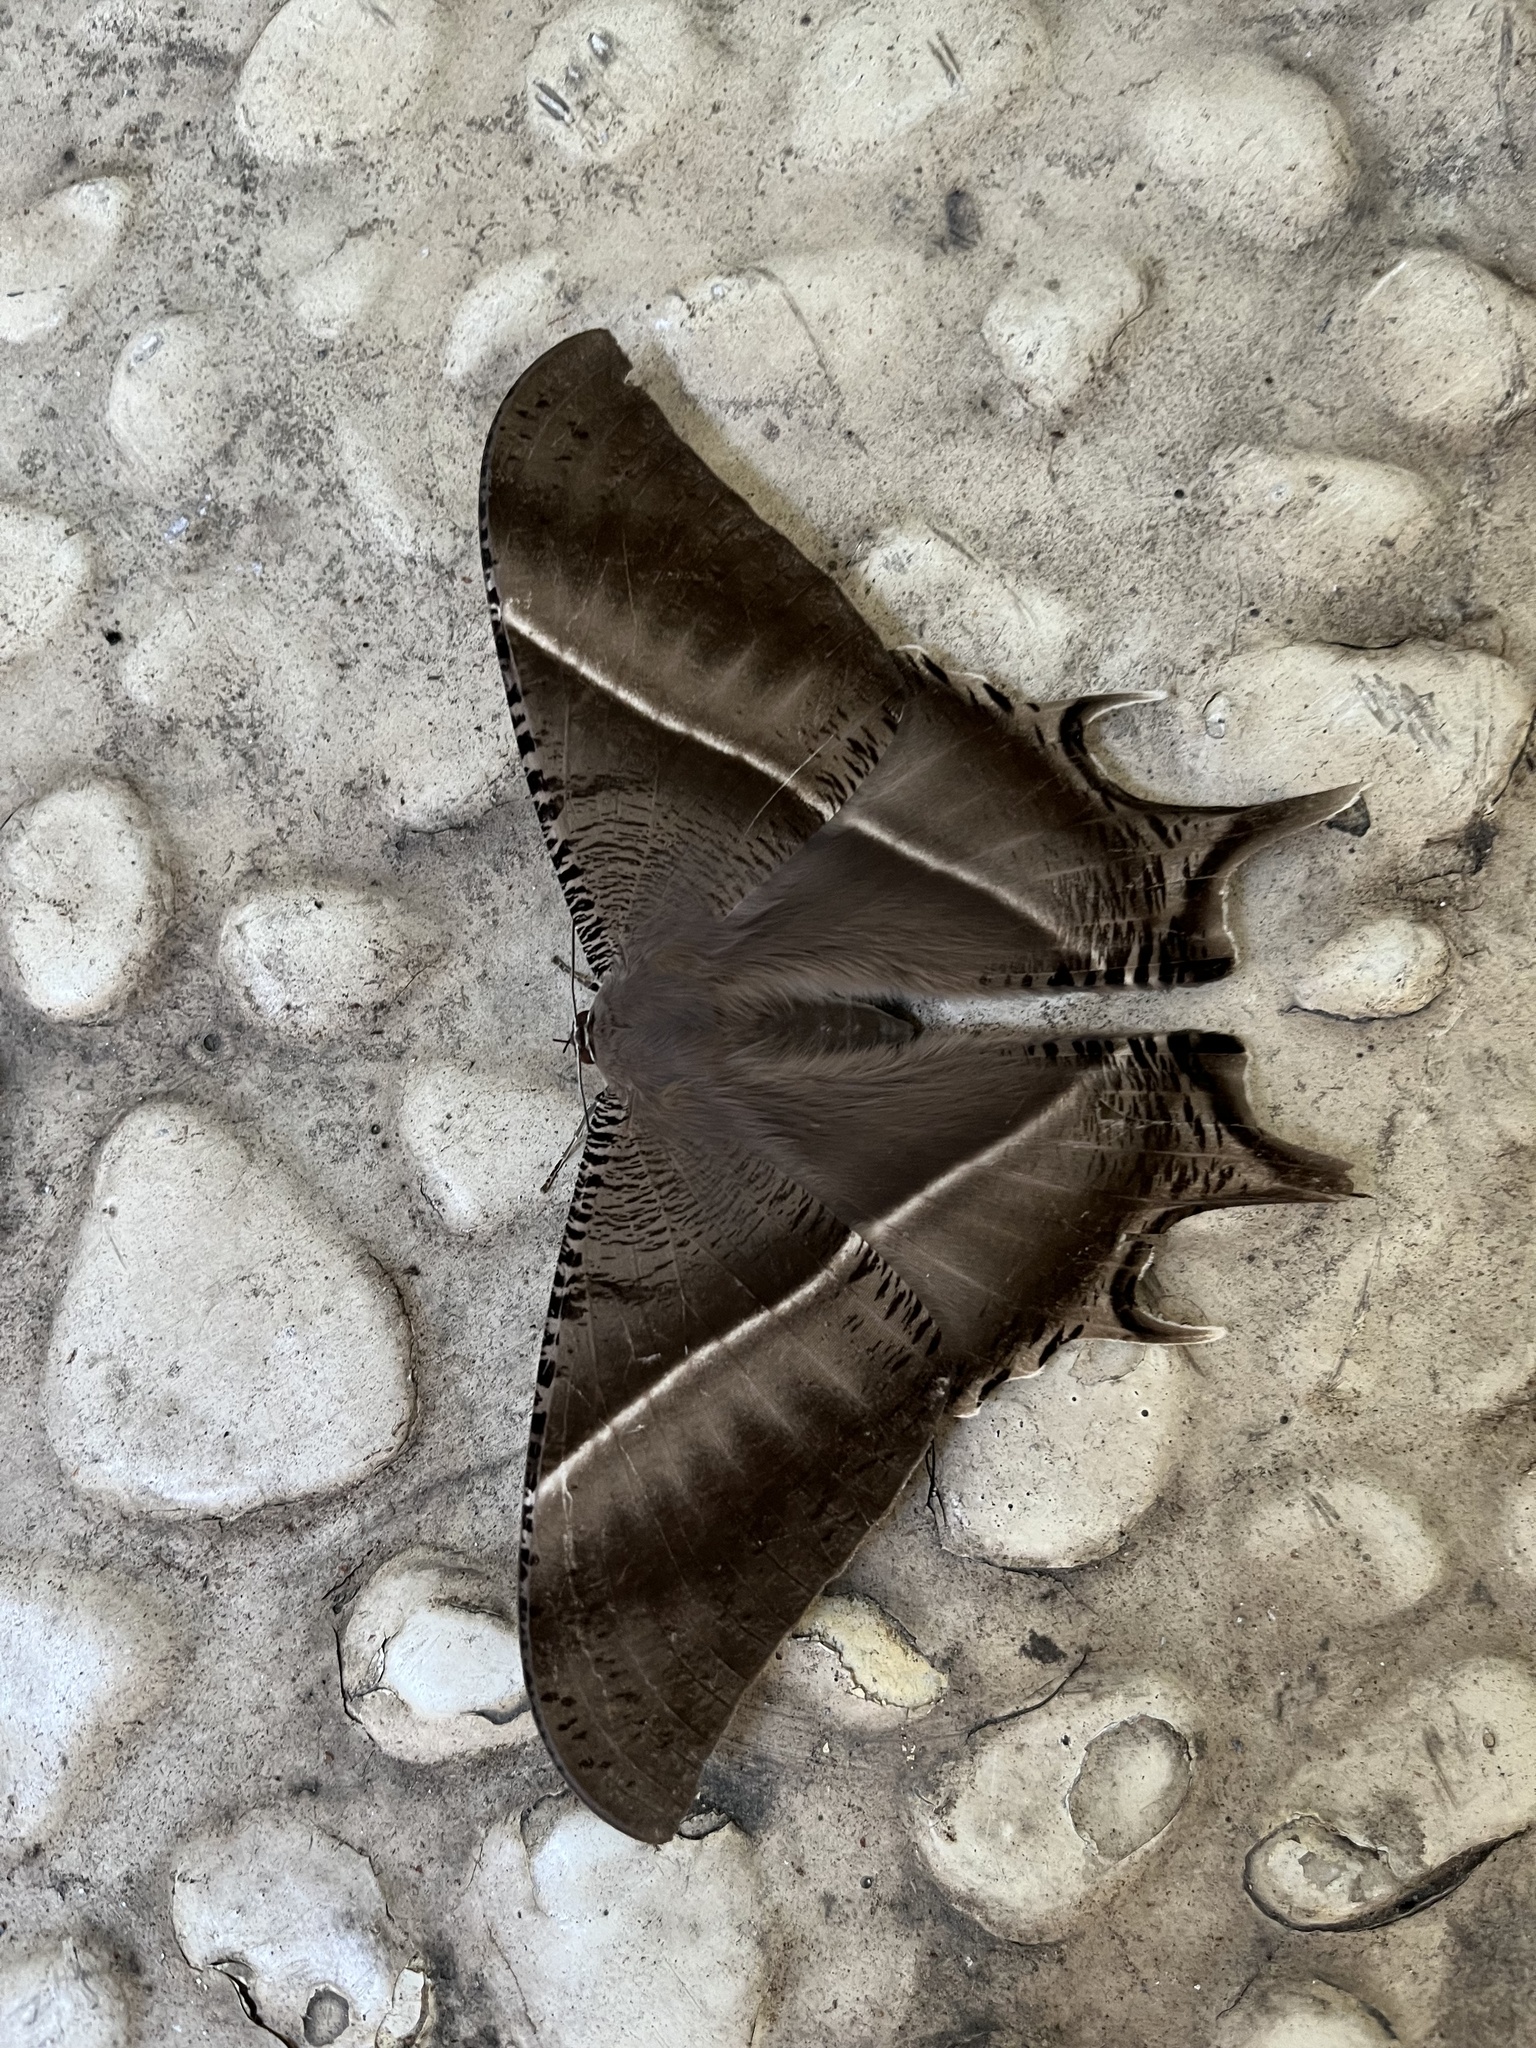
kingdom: Animalia
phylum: Arthropoda
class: Insecta
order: Lepidoptera
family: Uraniidae
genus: Lyssa
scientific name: Lyssa zampa
